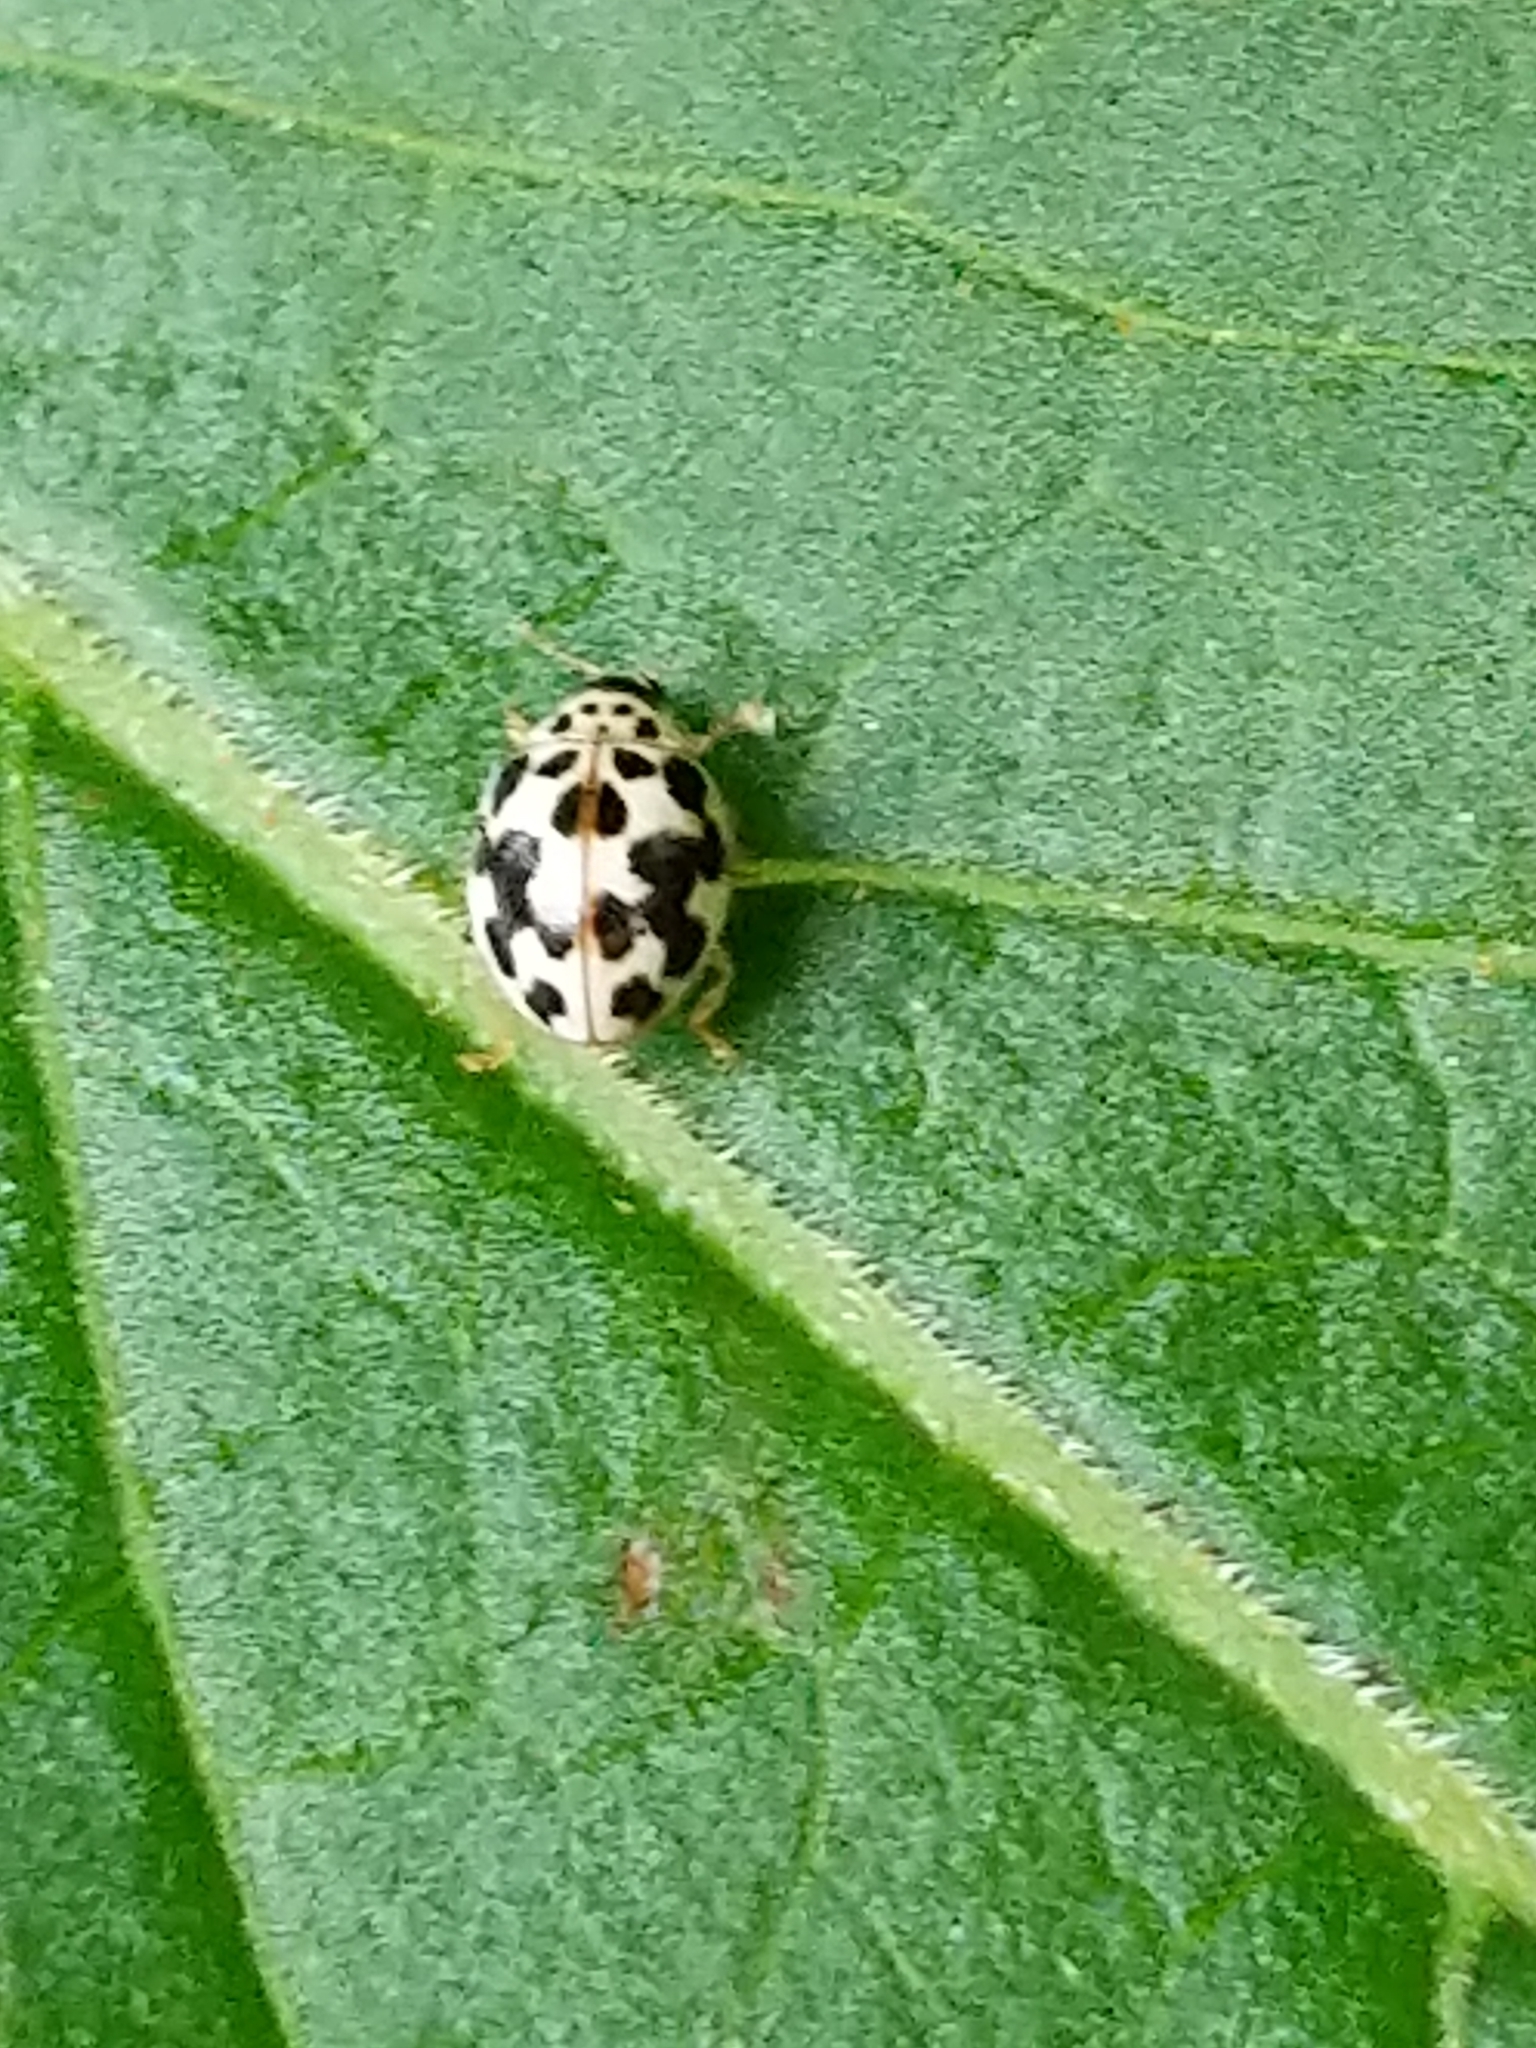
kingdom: Animalia
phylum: Arthropoda
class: Insecta
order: Coleoptera
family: Coccinellidae
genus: Psyllobora
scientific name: Psyllobora vigintimaculata
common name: Ladybird beetle
